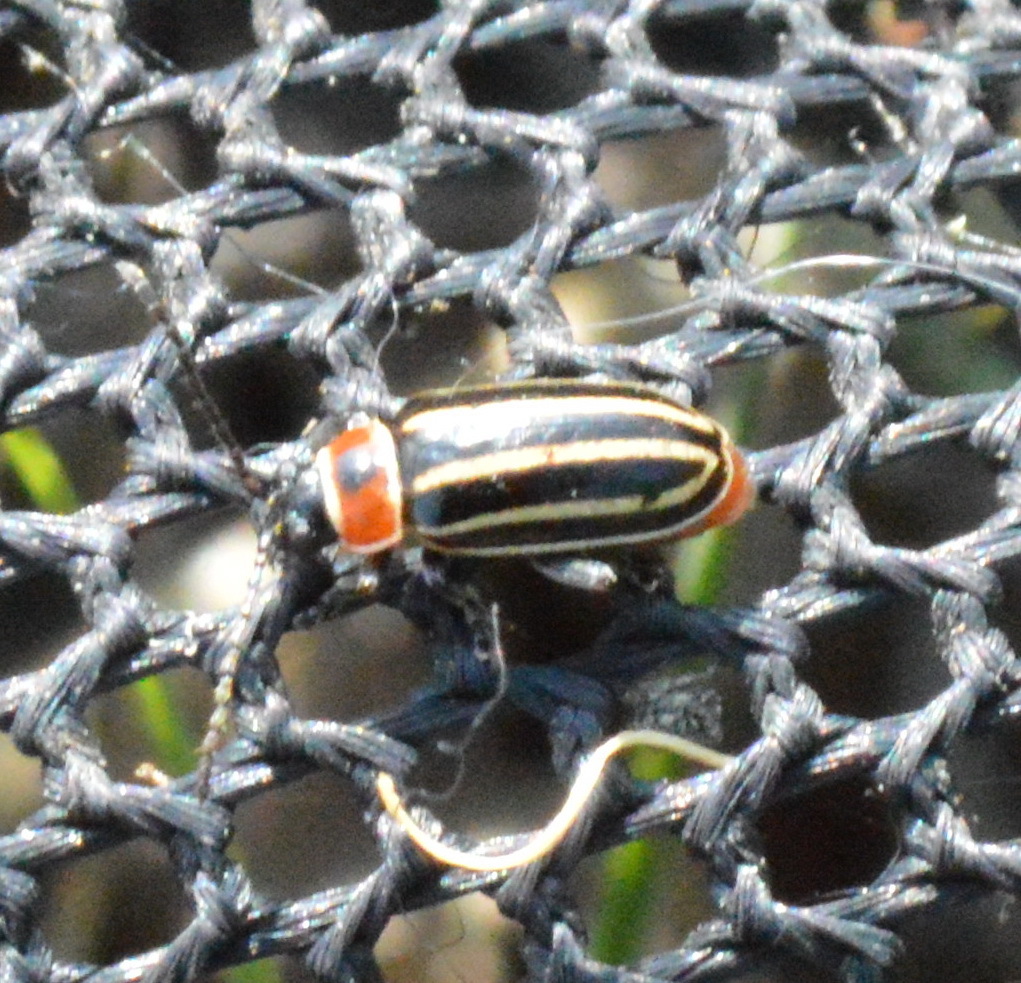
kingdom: Animalia
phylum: Arthropoda
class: Insecta
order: Coleoptera
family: Chrysomelidae
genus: Disonycha
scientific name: Disonycha pensylvanica
